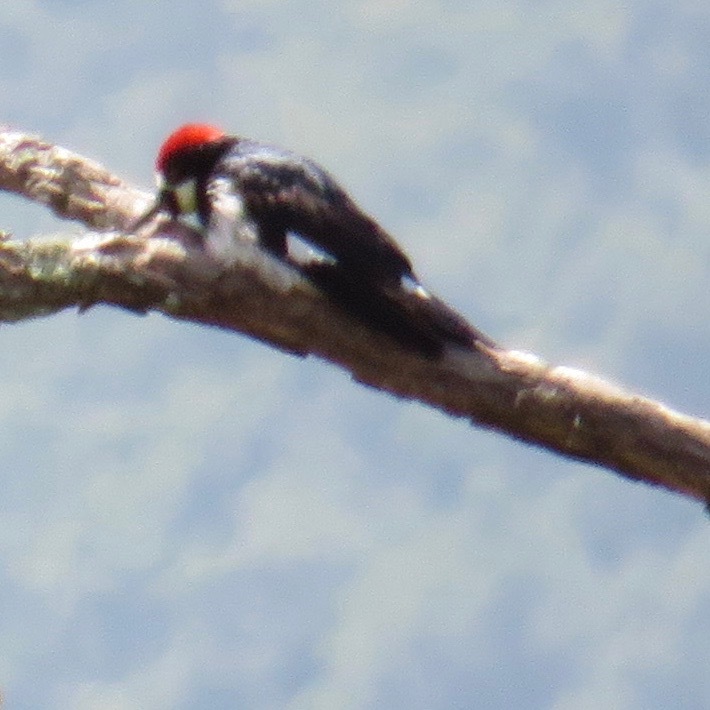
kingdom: Animalia
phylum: Chordata
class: Aves
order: Piciformes
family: Picidae
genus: Melanerpes
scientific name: Melanerpes formicivorus
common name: Acorn woodpecker
